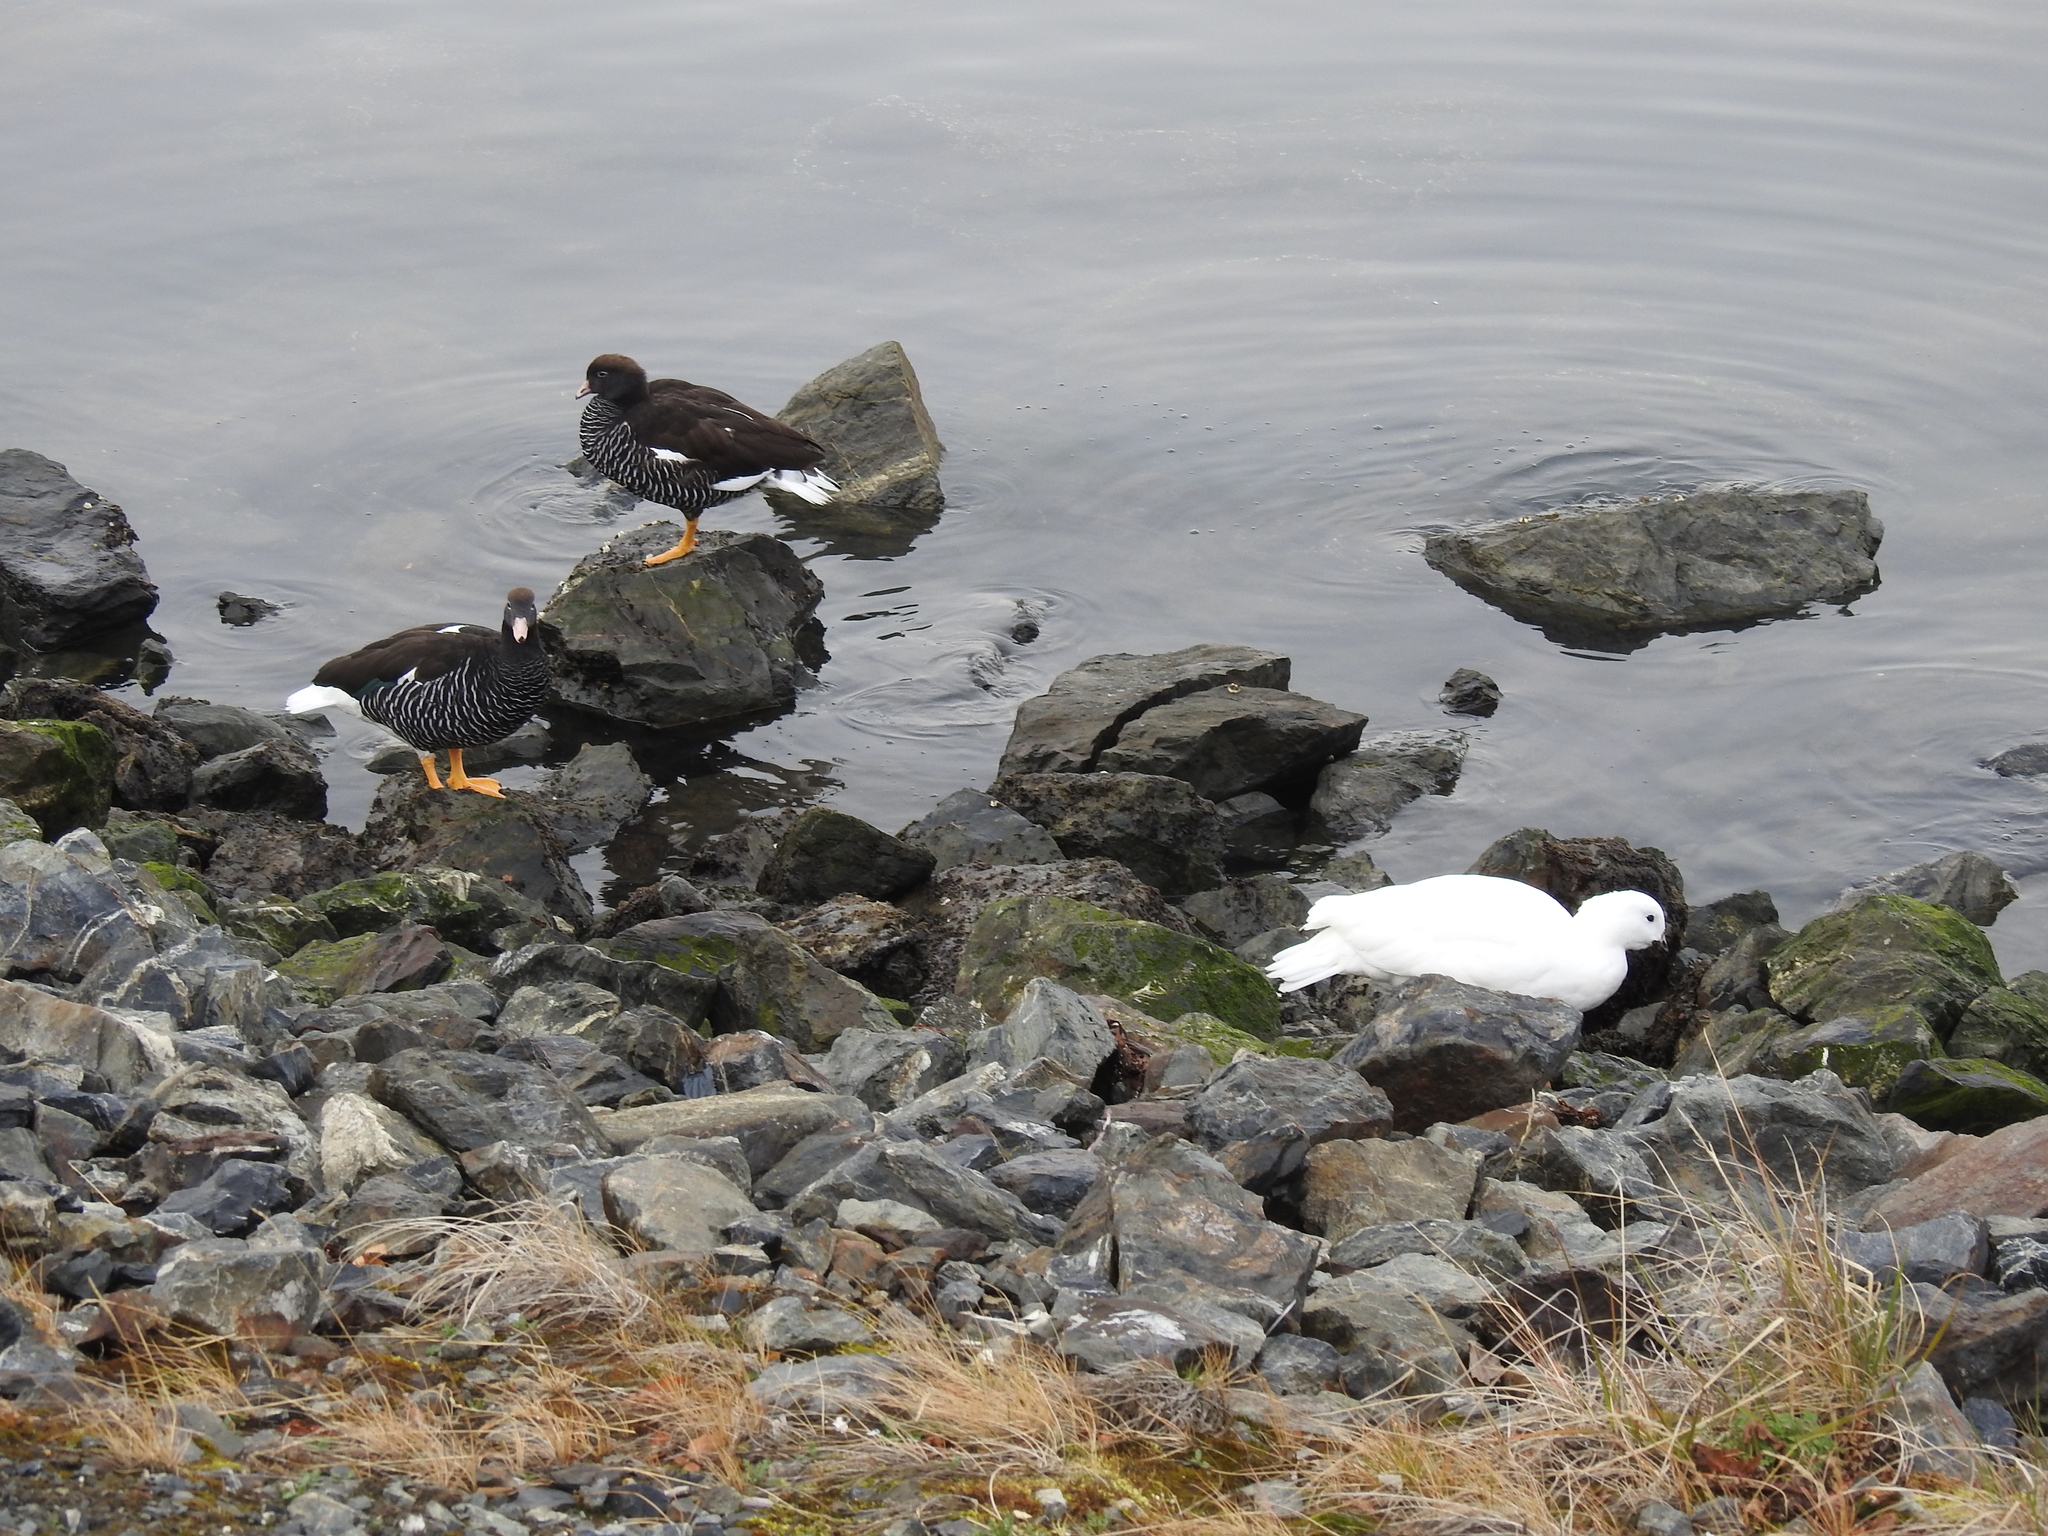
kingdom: Animalia
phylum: Chordata
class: Aves
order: Anseriformes
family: Anatidae
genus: Chloephaga
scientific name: Chloephaga hybrida
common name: Kelp goose
